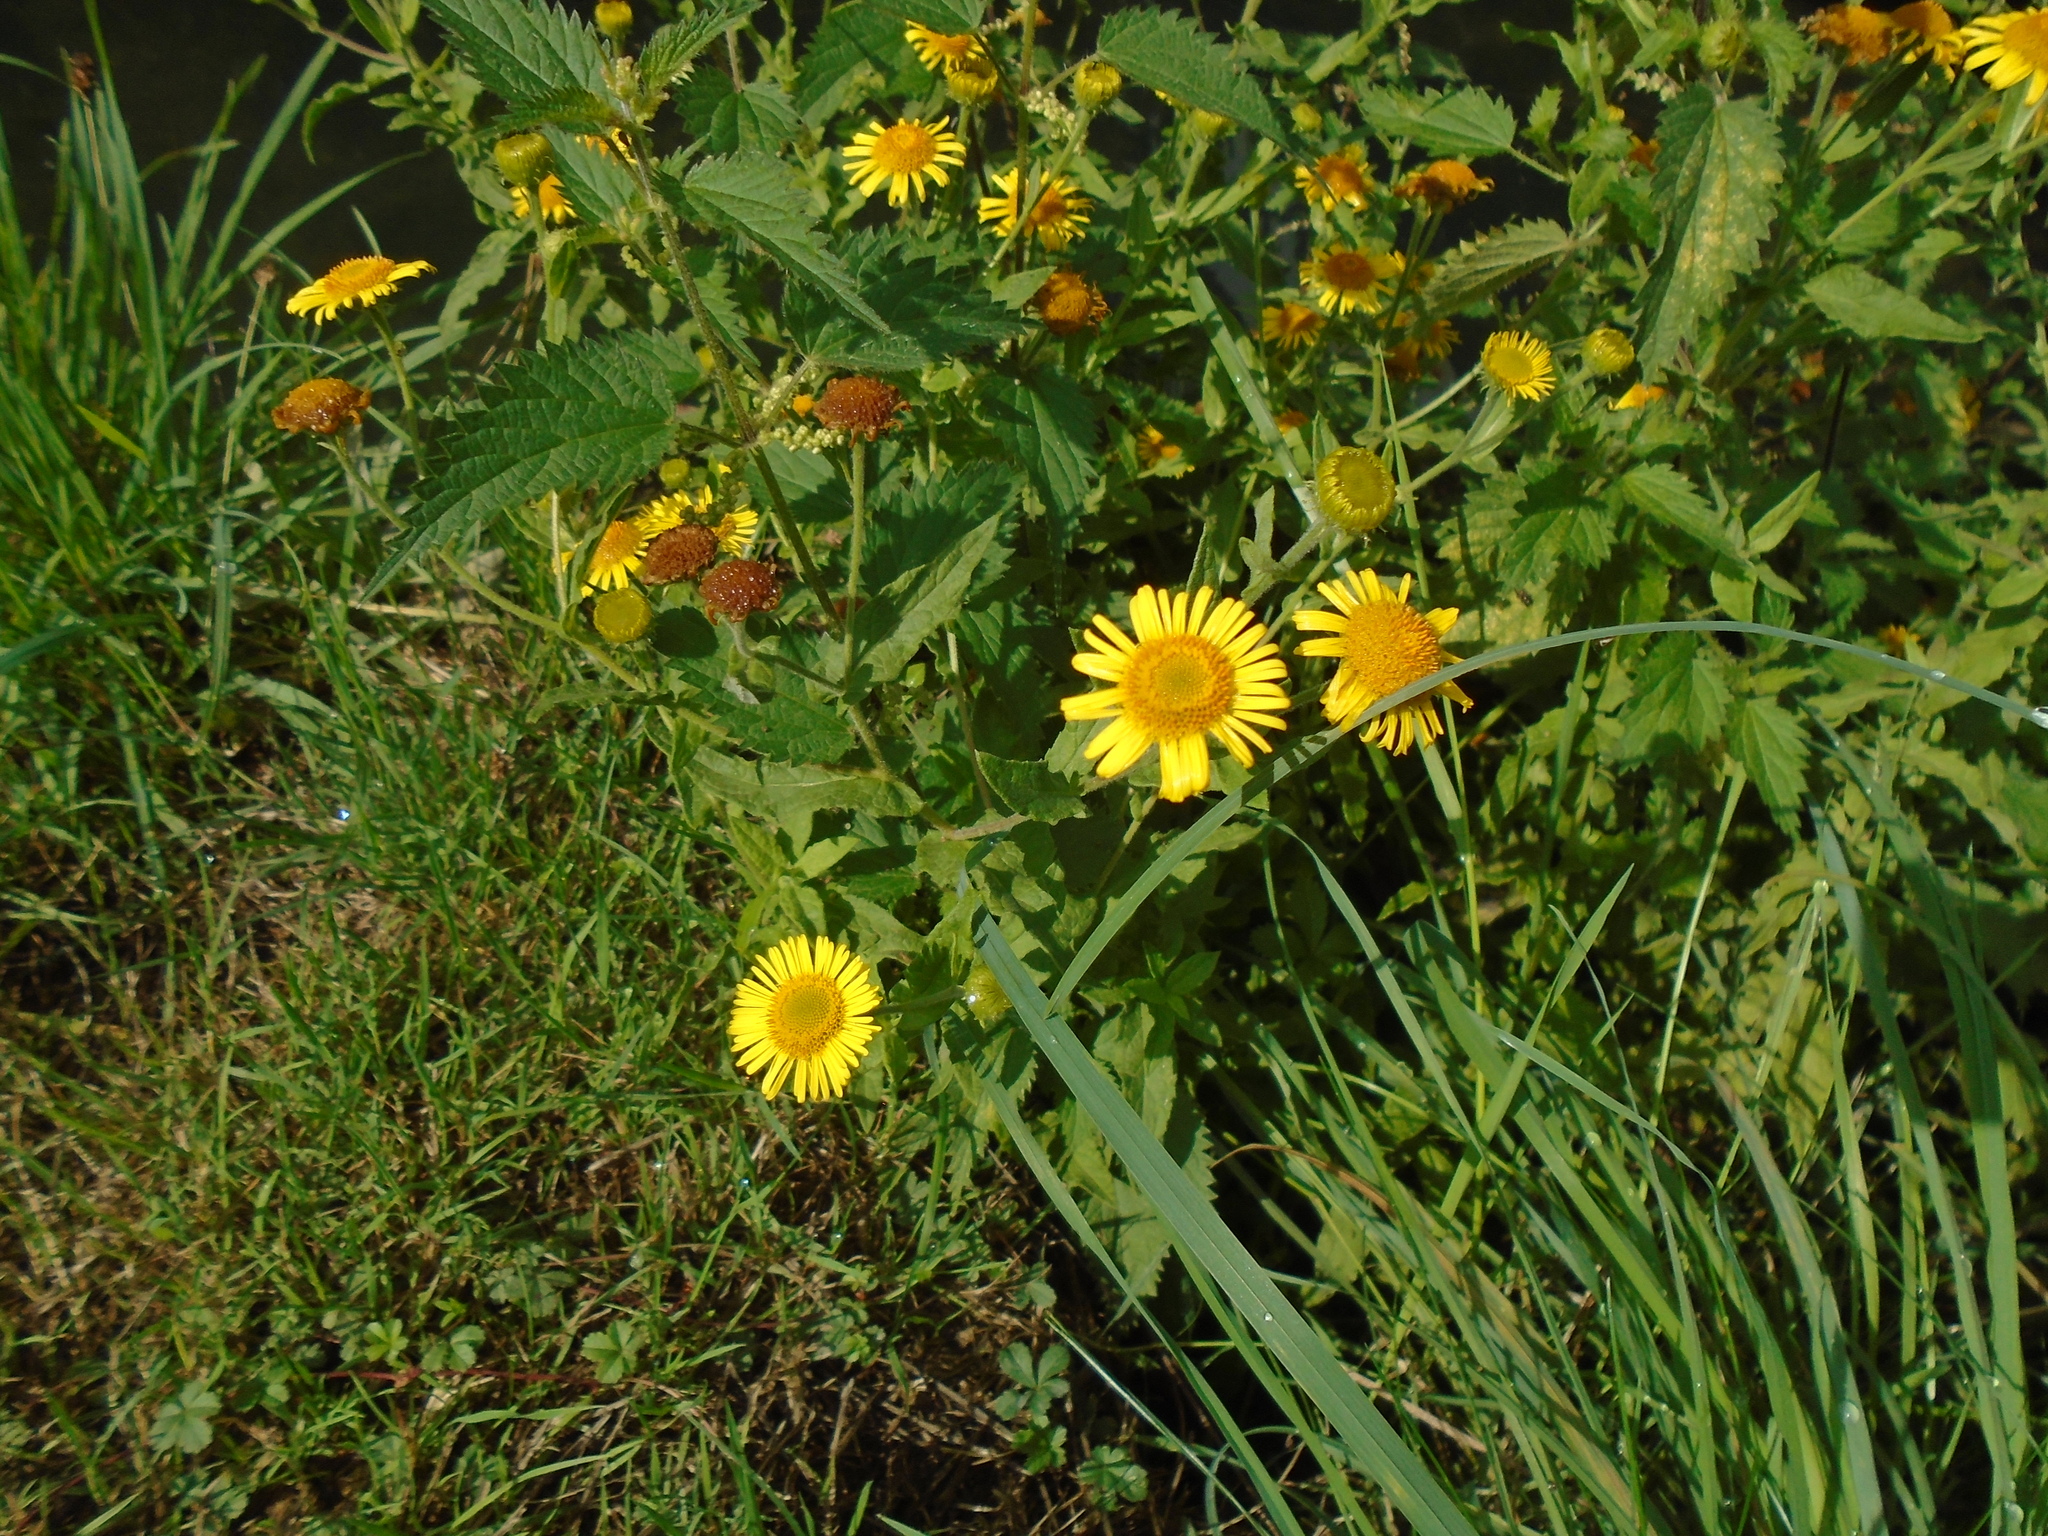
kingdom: Plantae
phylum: Tracheophyta
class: Magnoliopsida
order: Asterales
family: Asteraceae
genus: Pulicaria
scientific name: Pulicaria dysenterica
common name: Common fleabane
